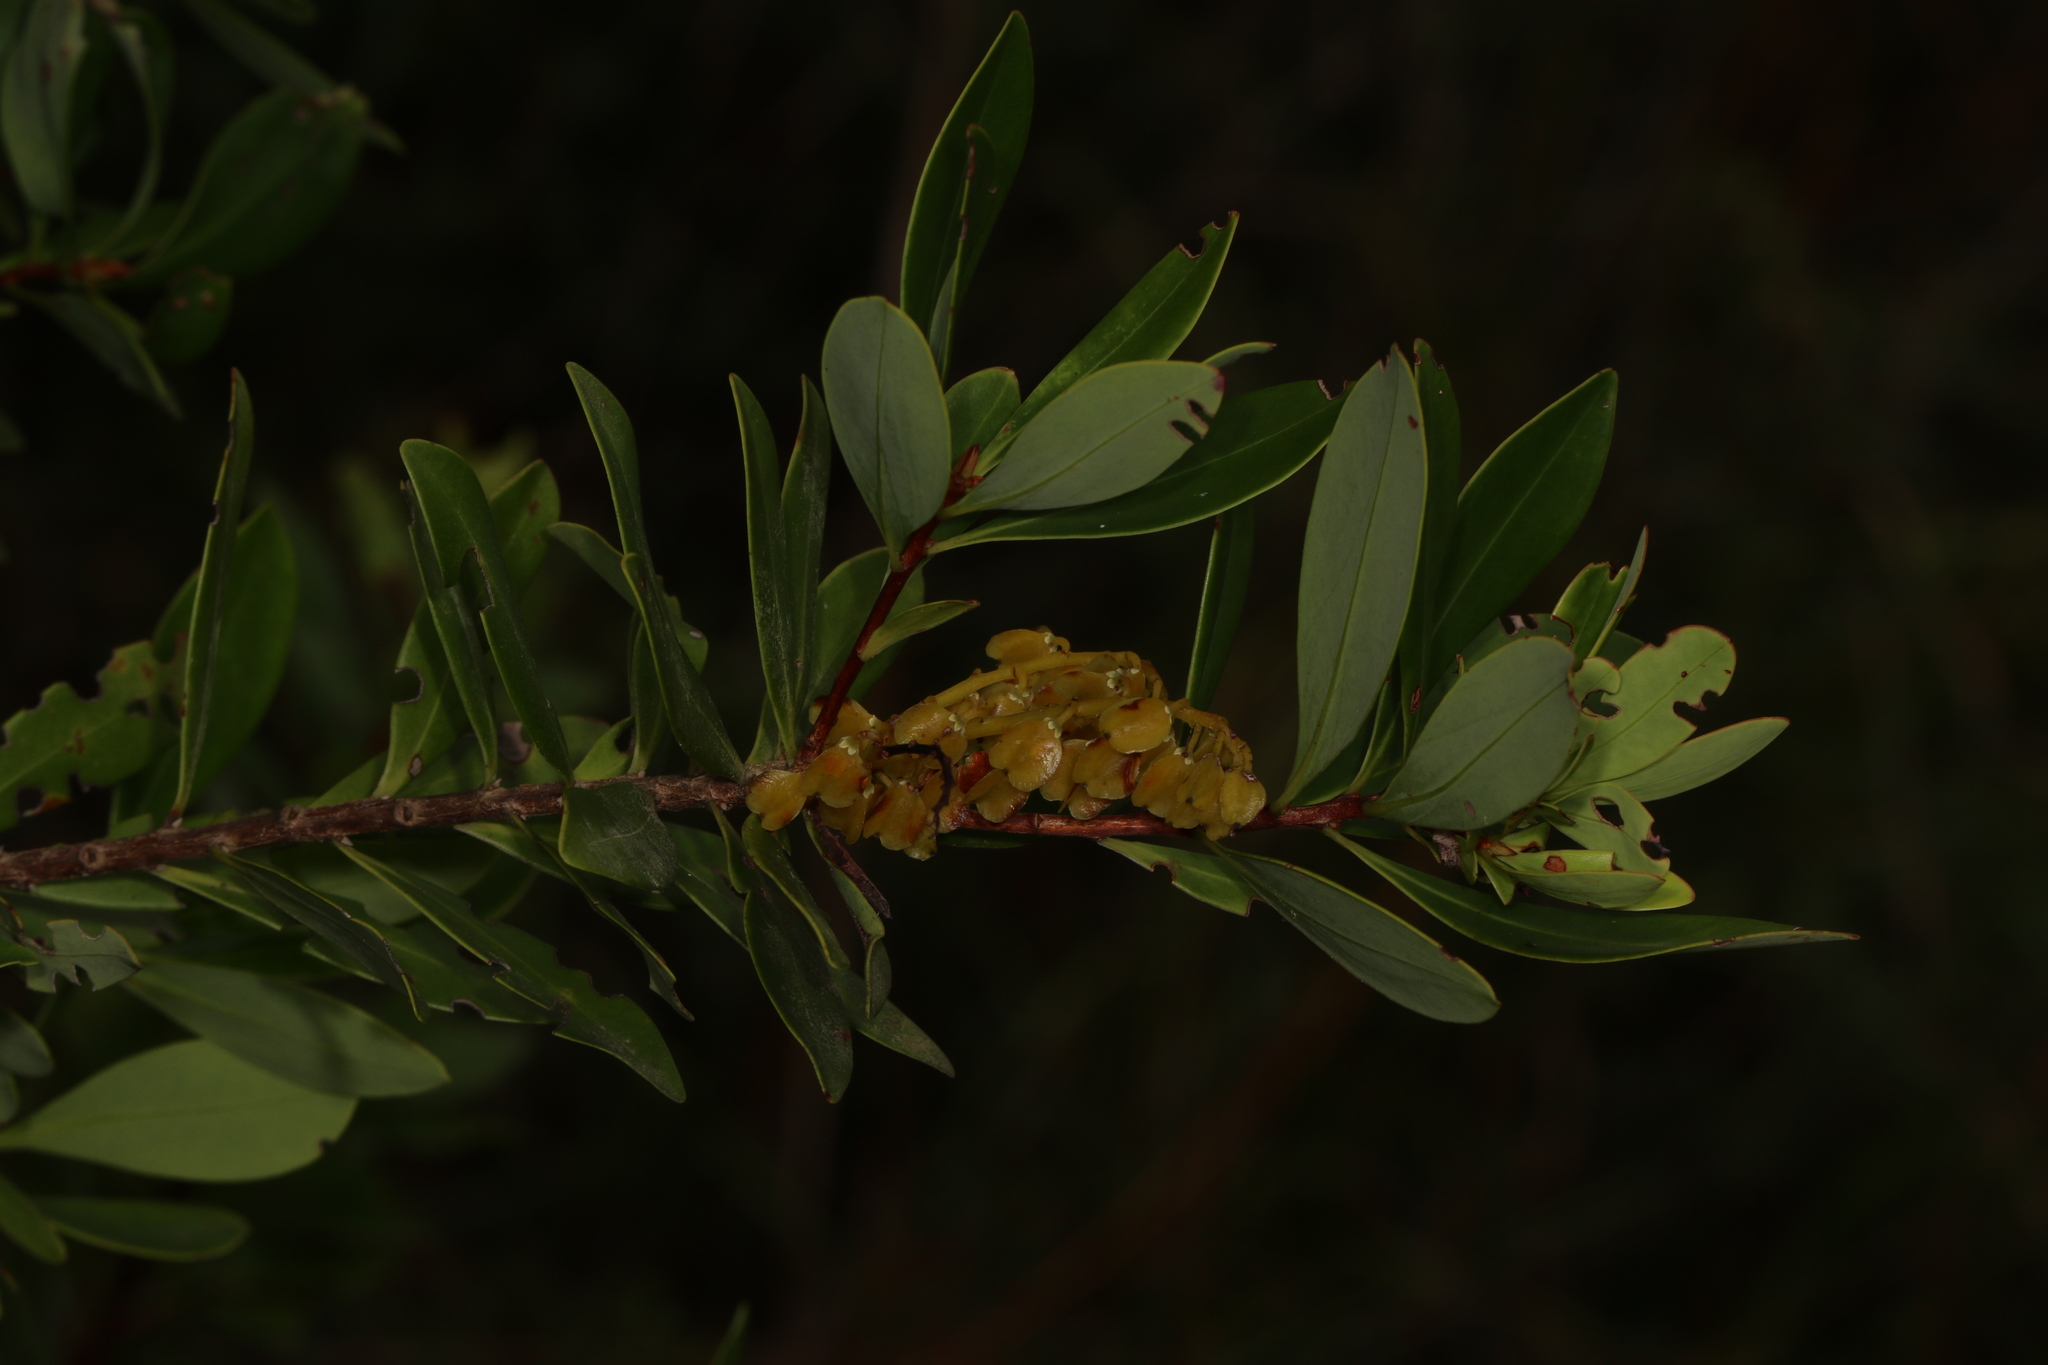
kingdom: Plantae
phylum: Tracheophyta
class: Magnoliopsida
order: Ericales
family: Cyrillaceae
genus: Cliftonia
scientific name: Cliftonia monophylla
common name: Titi
